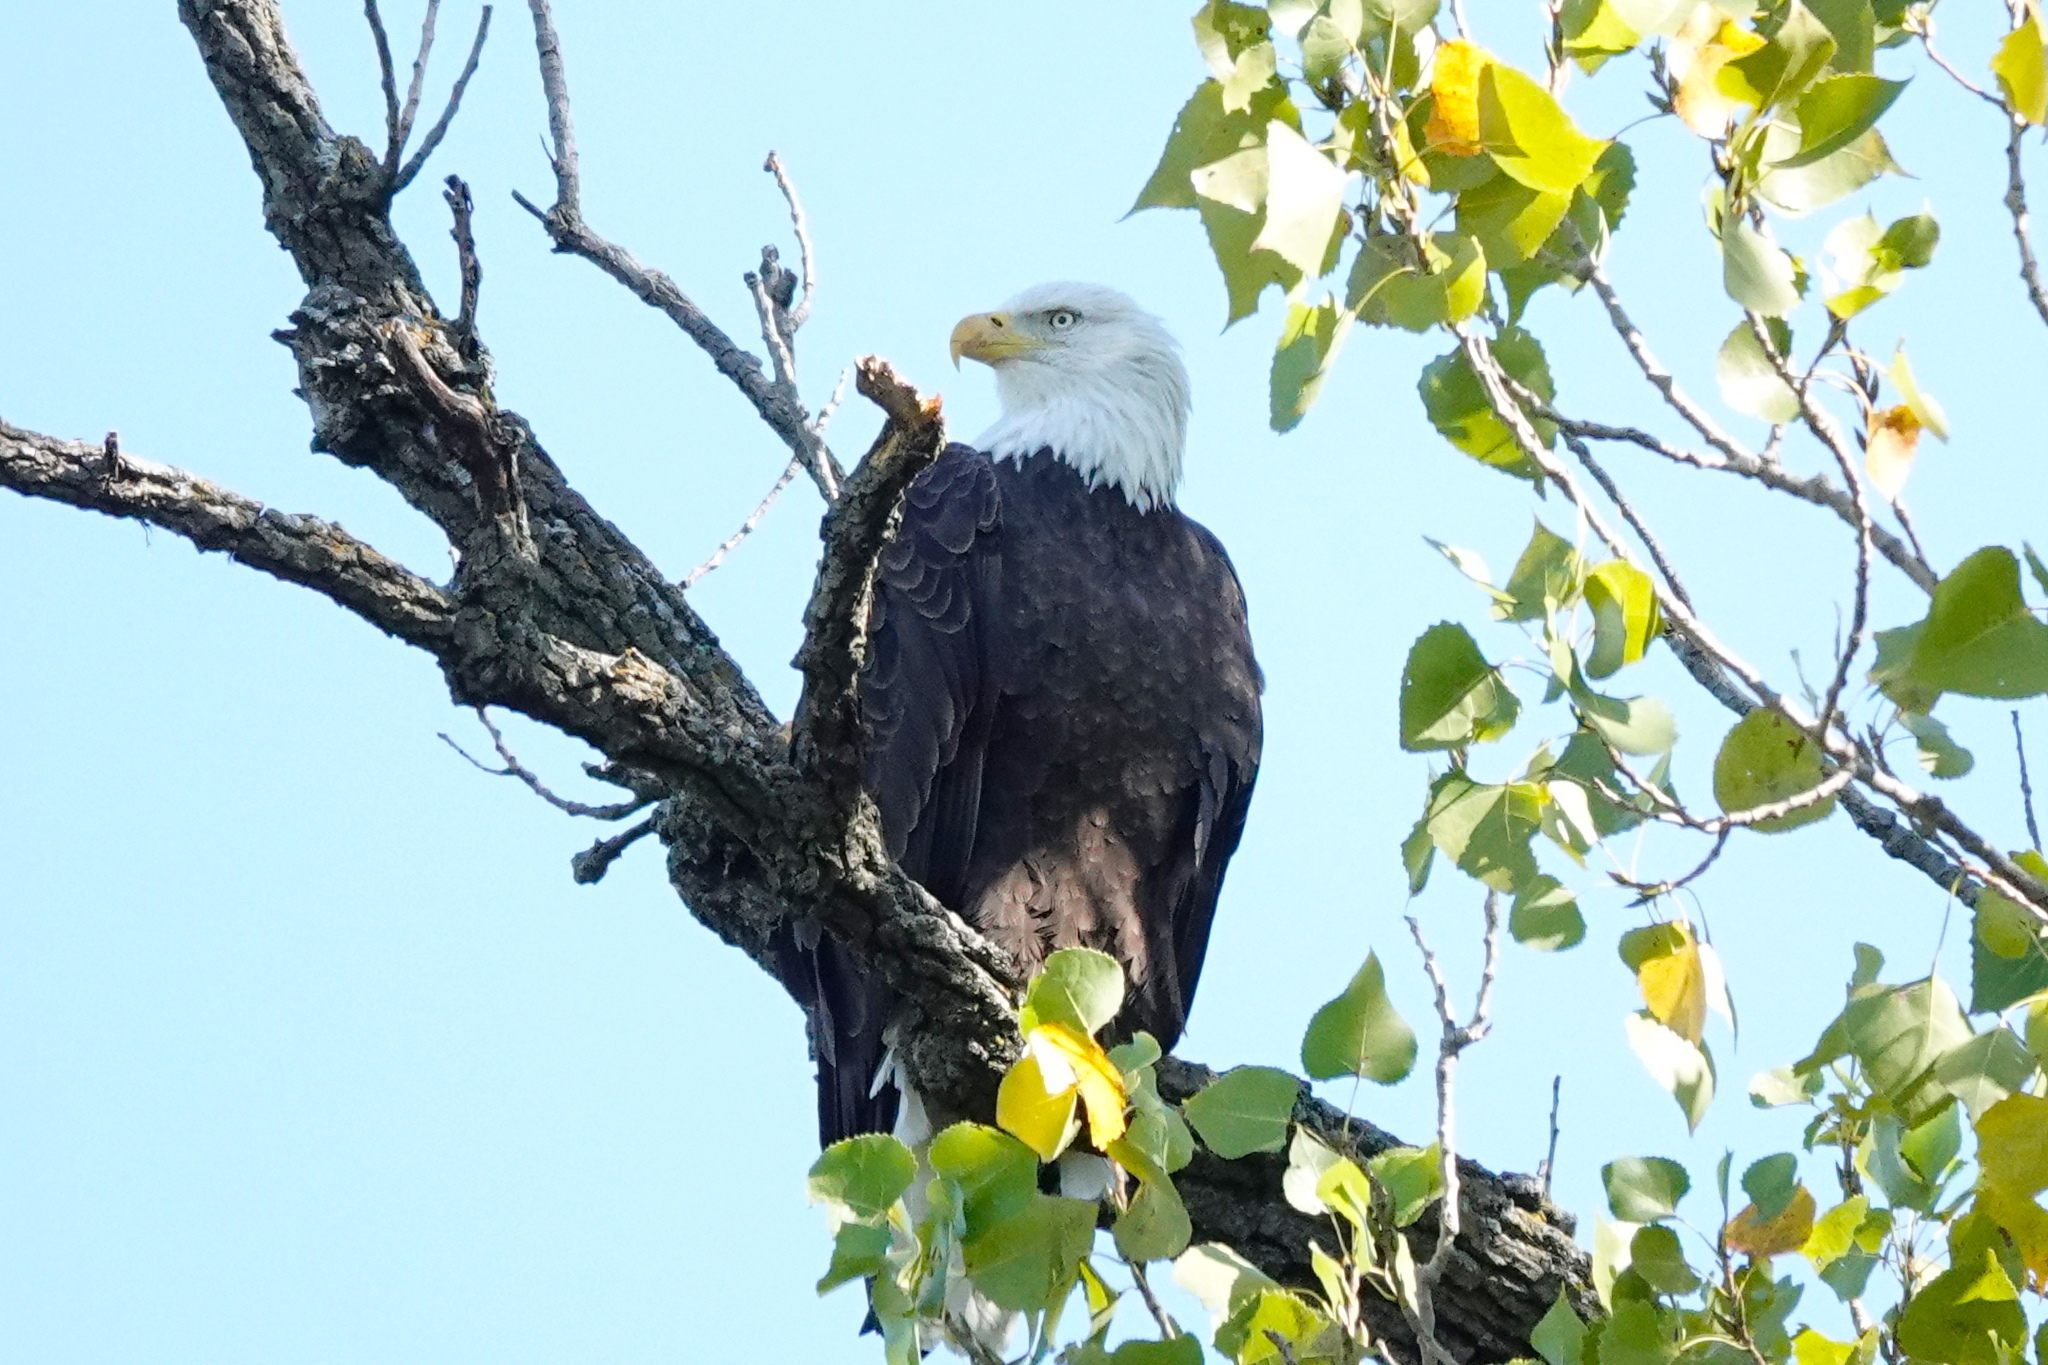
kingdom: Animalia
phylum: Chordata
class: Aves
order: Accipitriformes
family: Accipitridae
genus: Haliaeetus
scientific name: Haliaeetus leucocephalus
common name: Bald eagle
